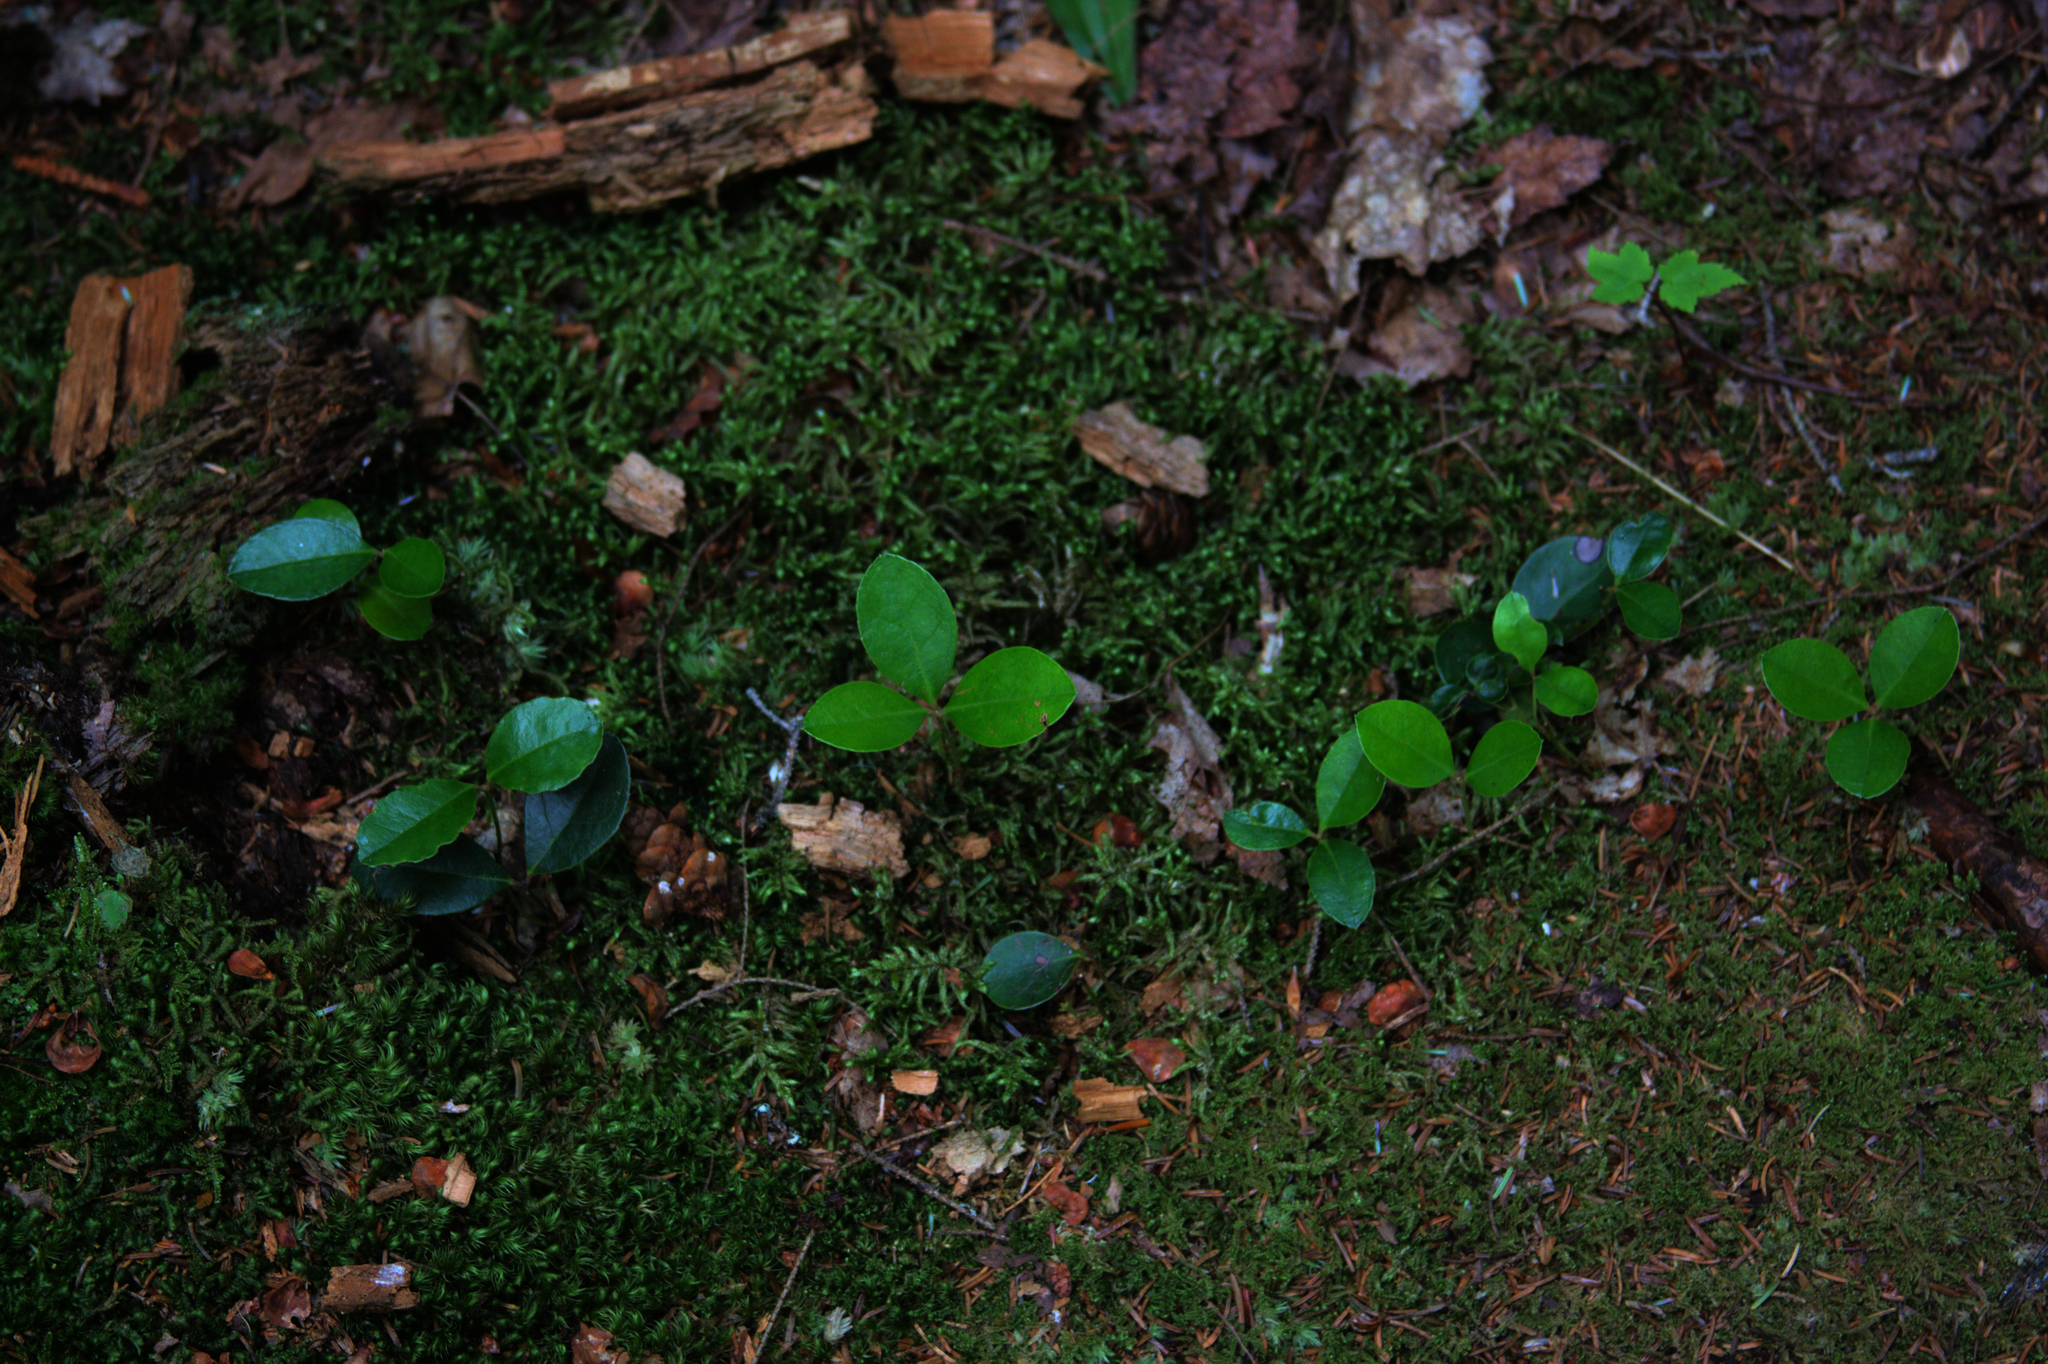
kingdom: Plantae
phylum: Tracheophyta
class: Magnoliopsida
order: Ericales
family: Ericaceae
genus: Gaultheria
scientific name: Gaultheria procumbens
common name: Checkerberry
